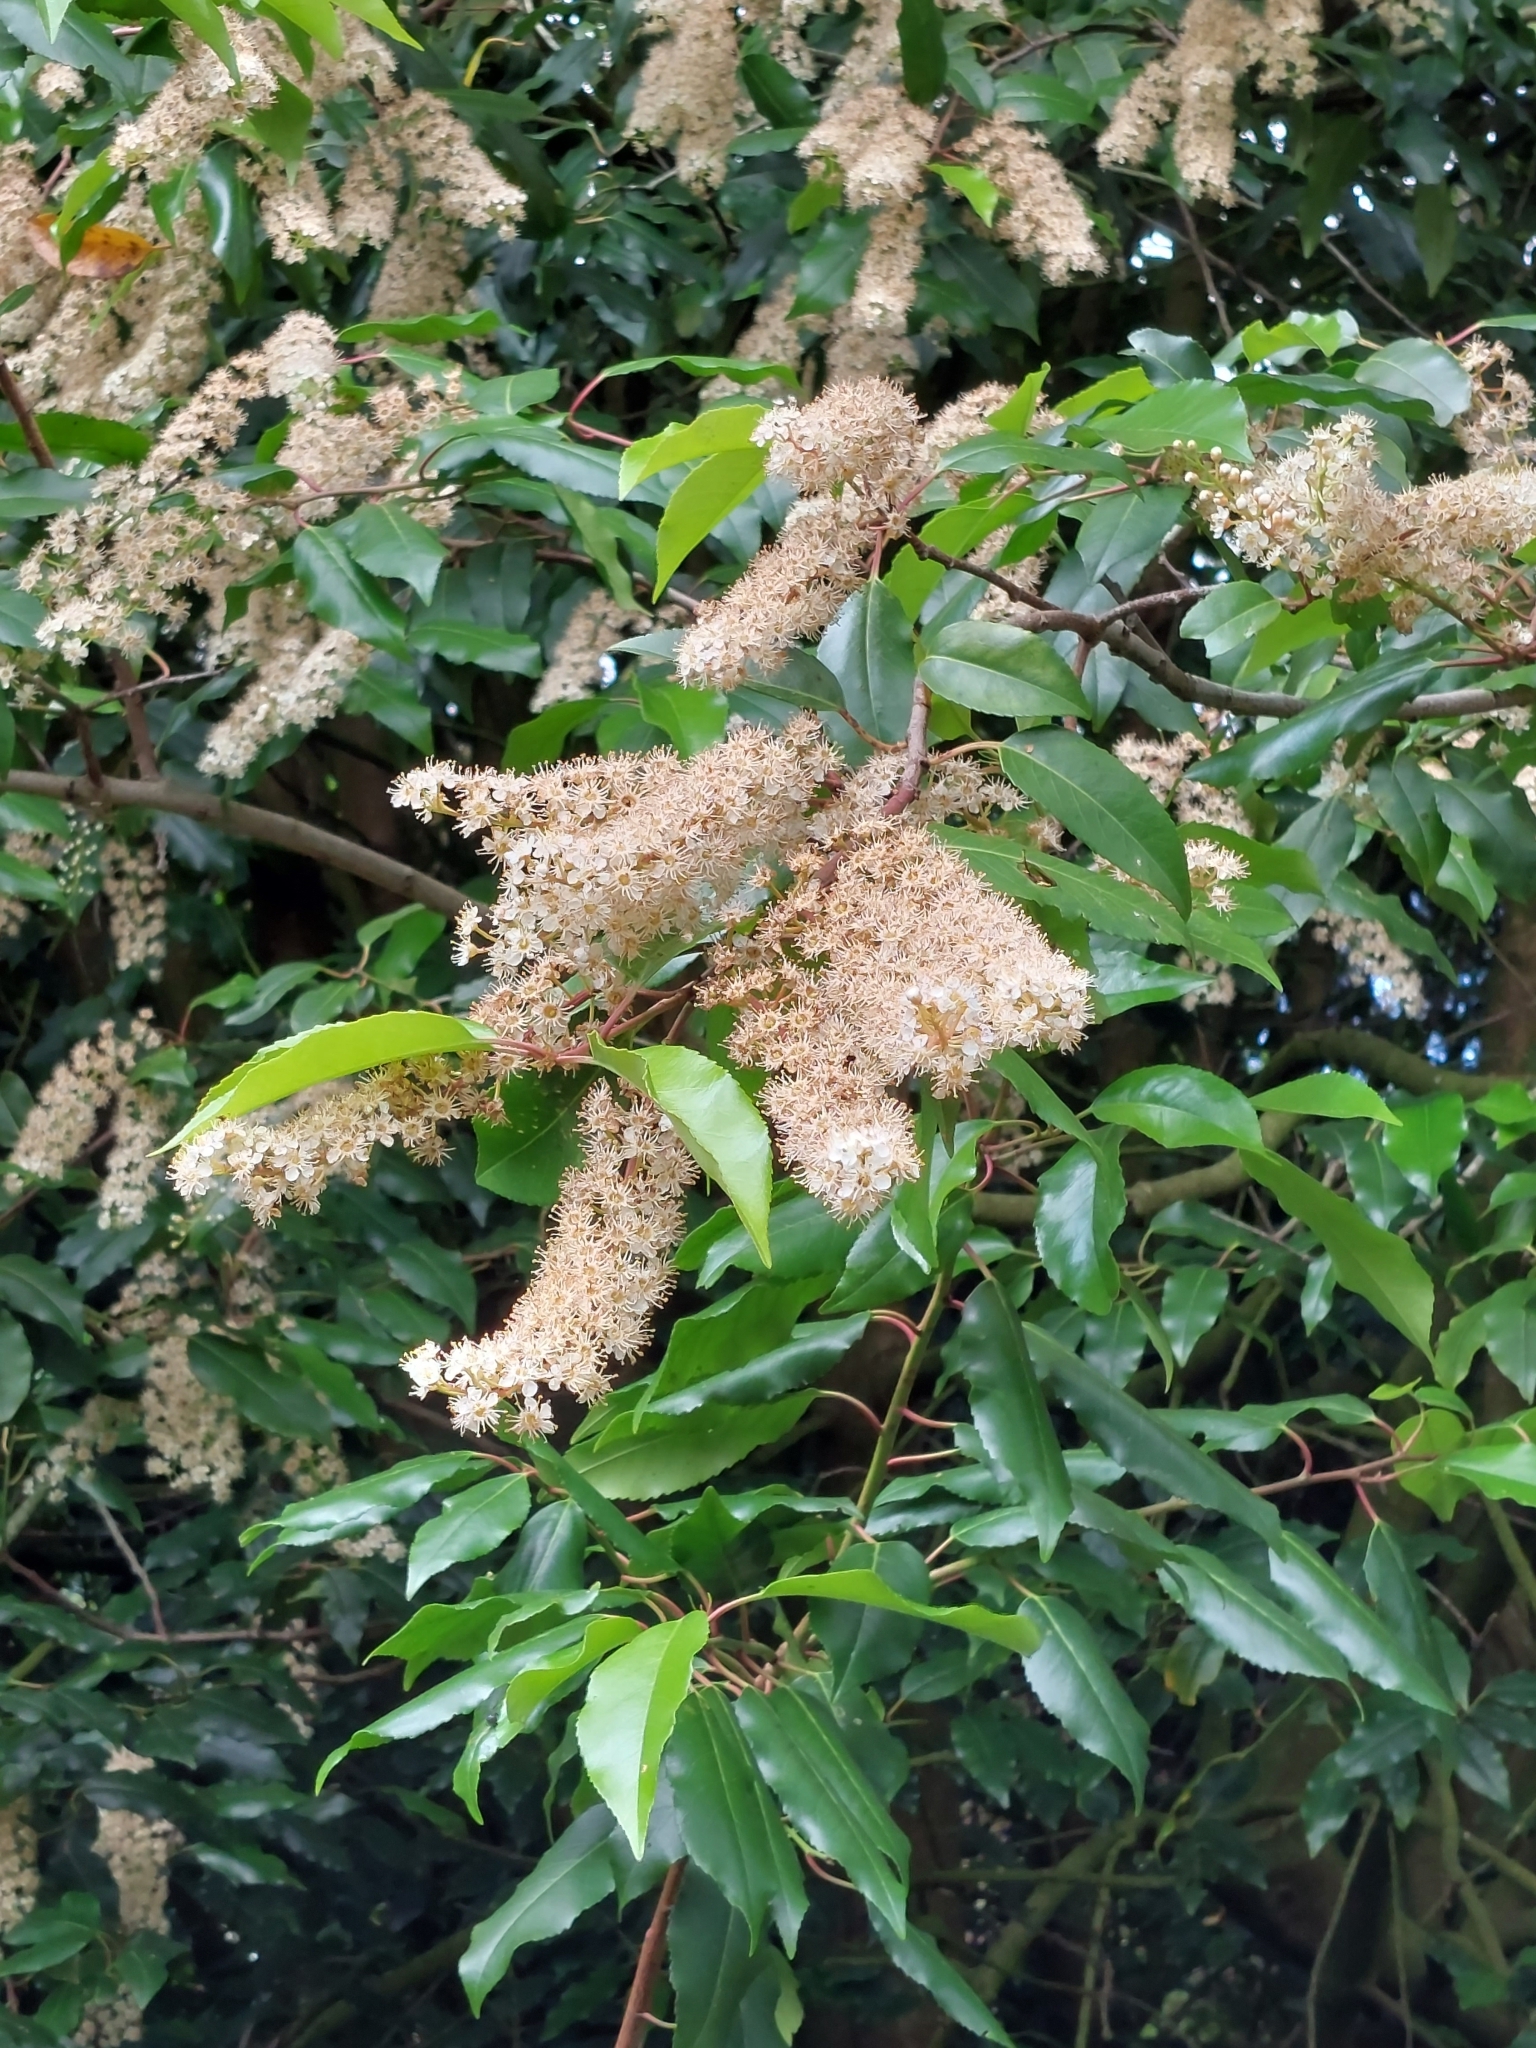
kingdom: Plantae
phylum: Tracheophyta
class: Magnoliopsida
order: Rosales
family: Rosaceae
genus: Prunus
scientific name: Prunus lusitanica
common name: Portugal laurel
